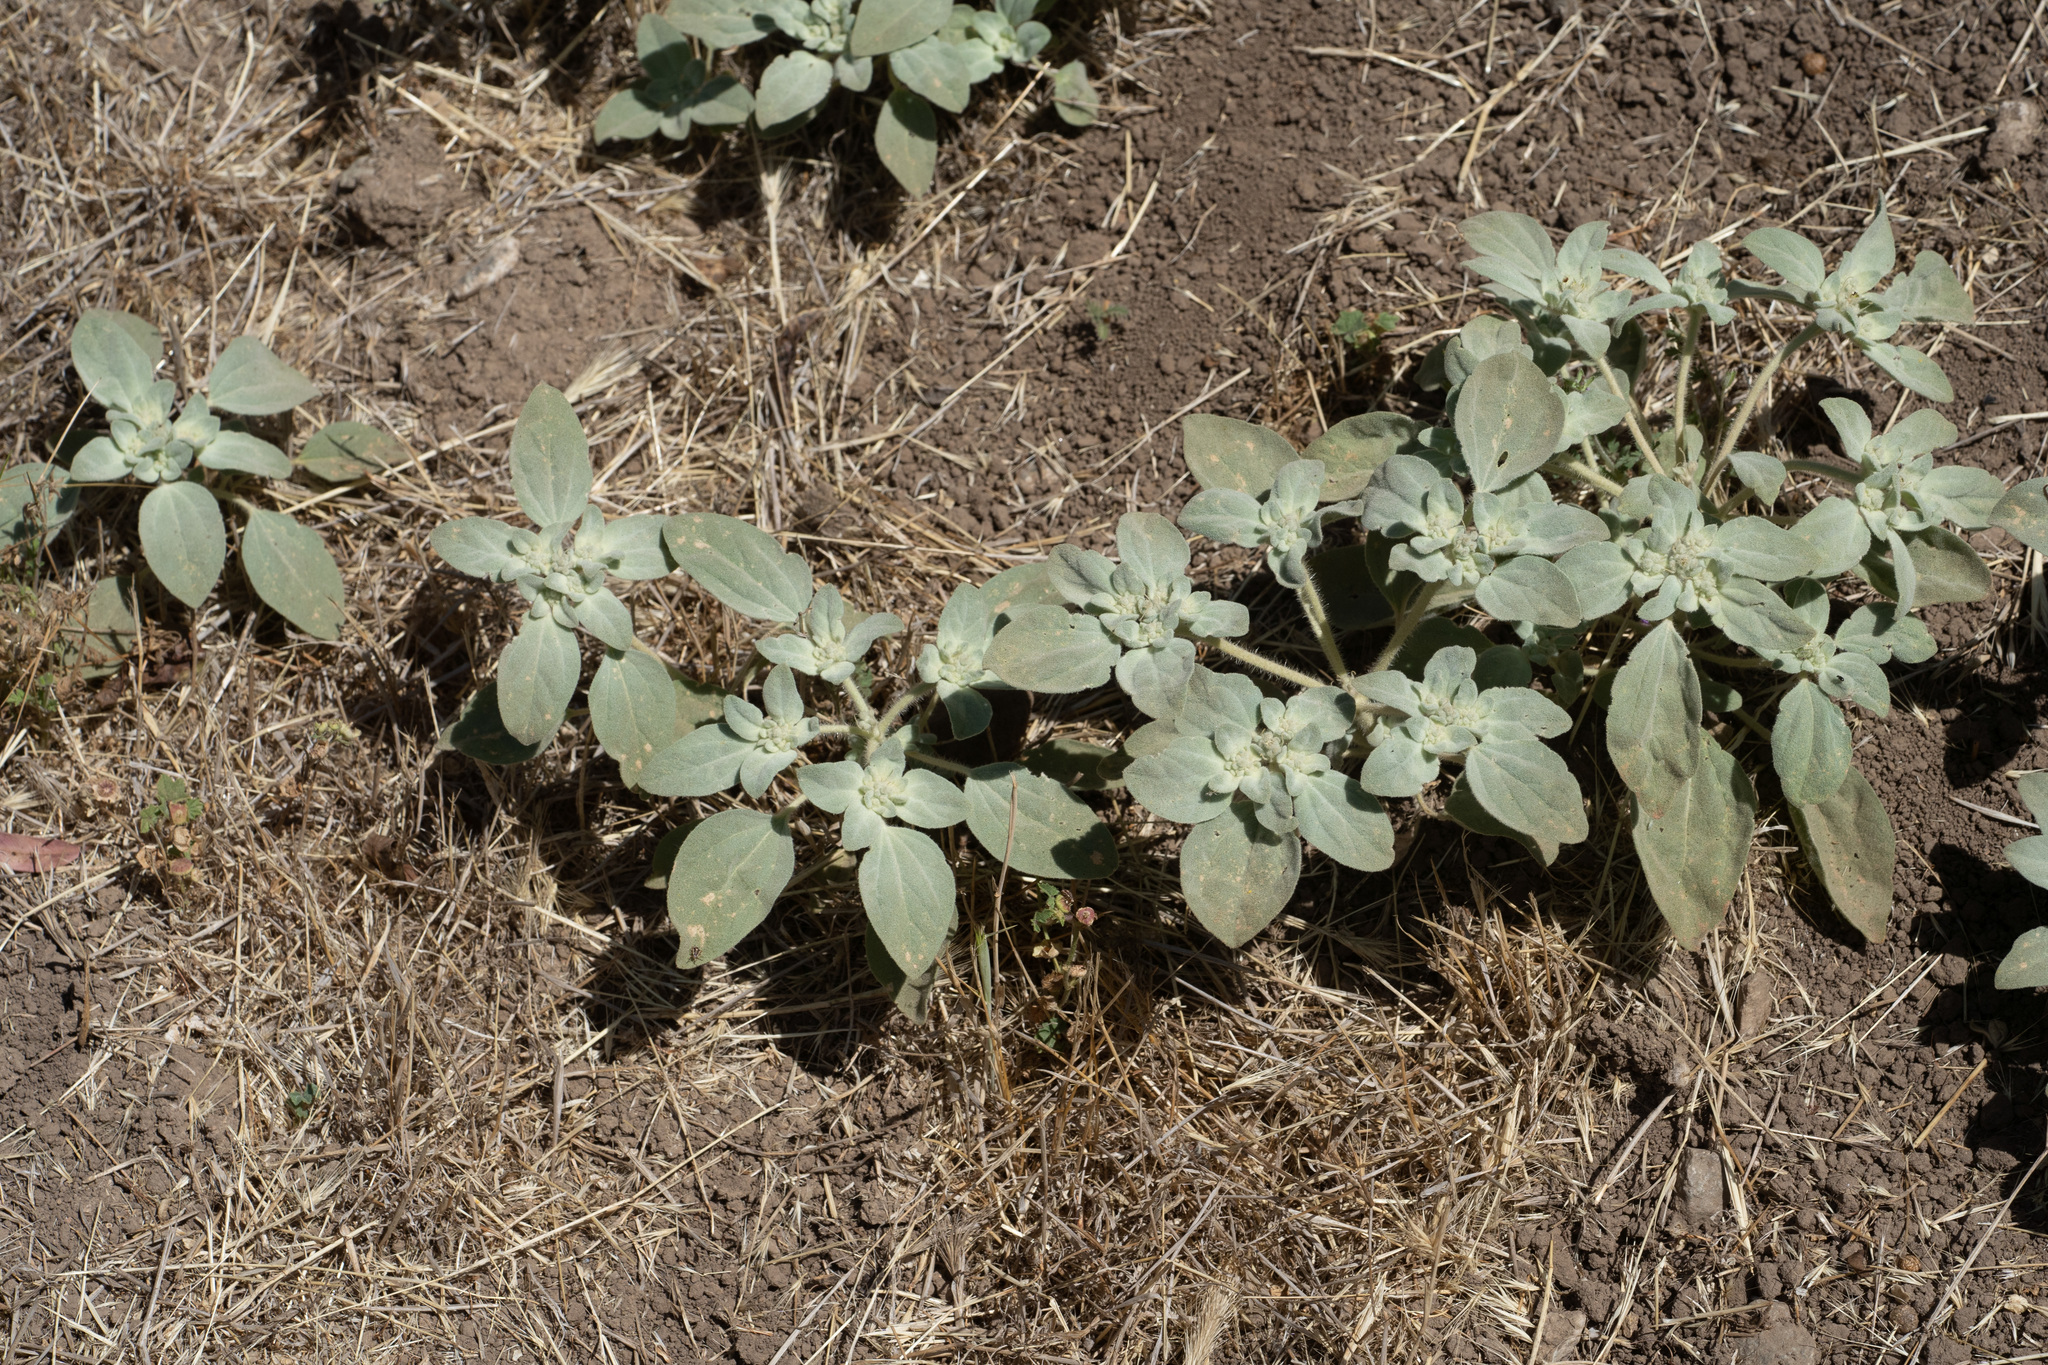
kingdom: Plantae
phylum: Tracheophyta
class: Magnoliopsida
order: Malpighiales
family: Euphorbiaceae
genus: Croton
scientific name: Croton setiger
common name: Dove weed
